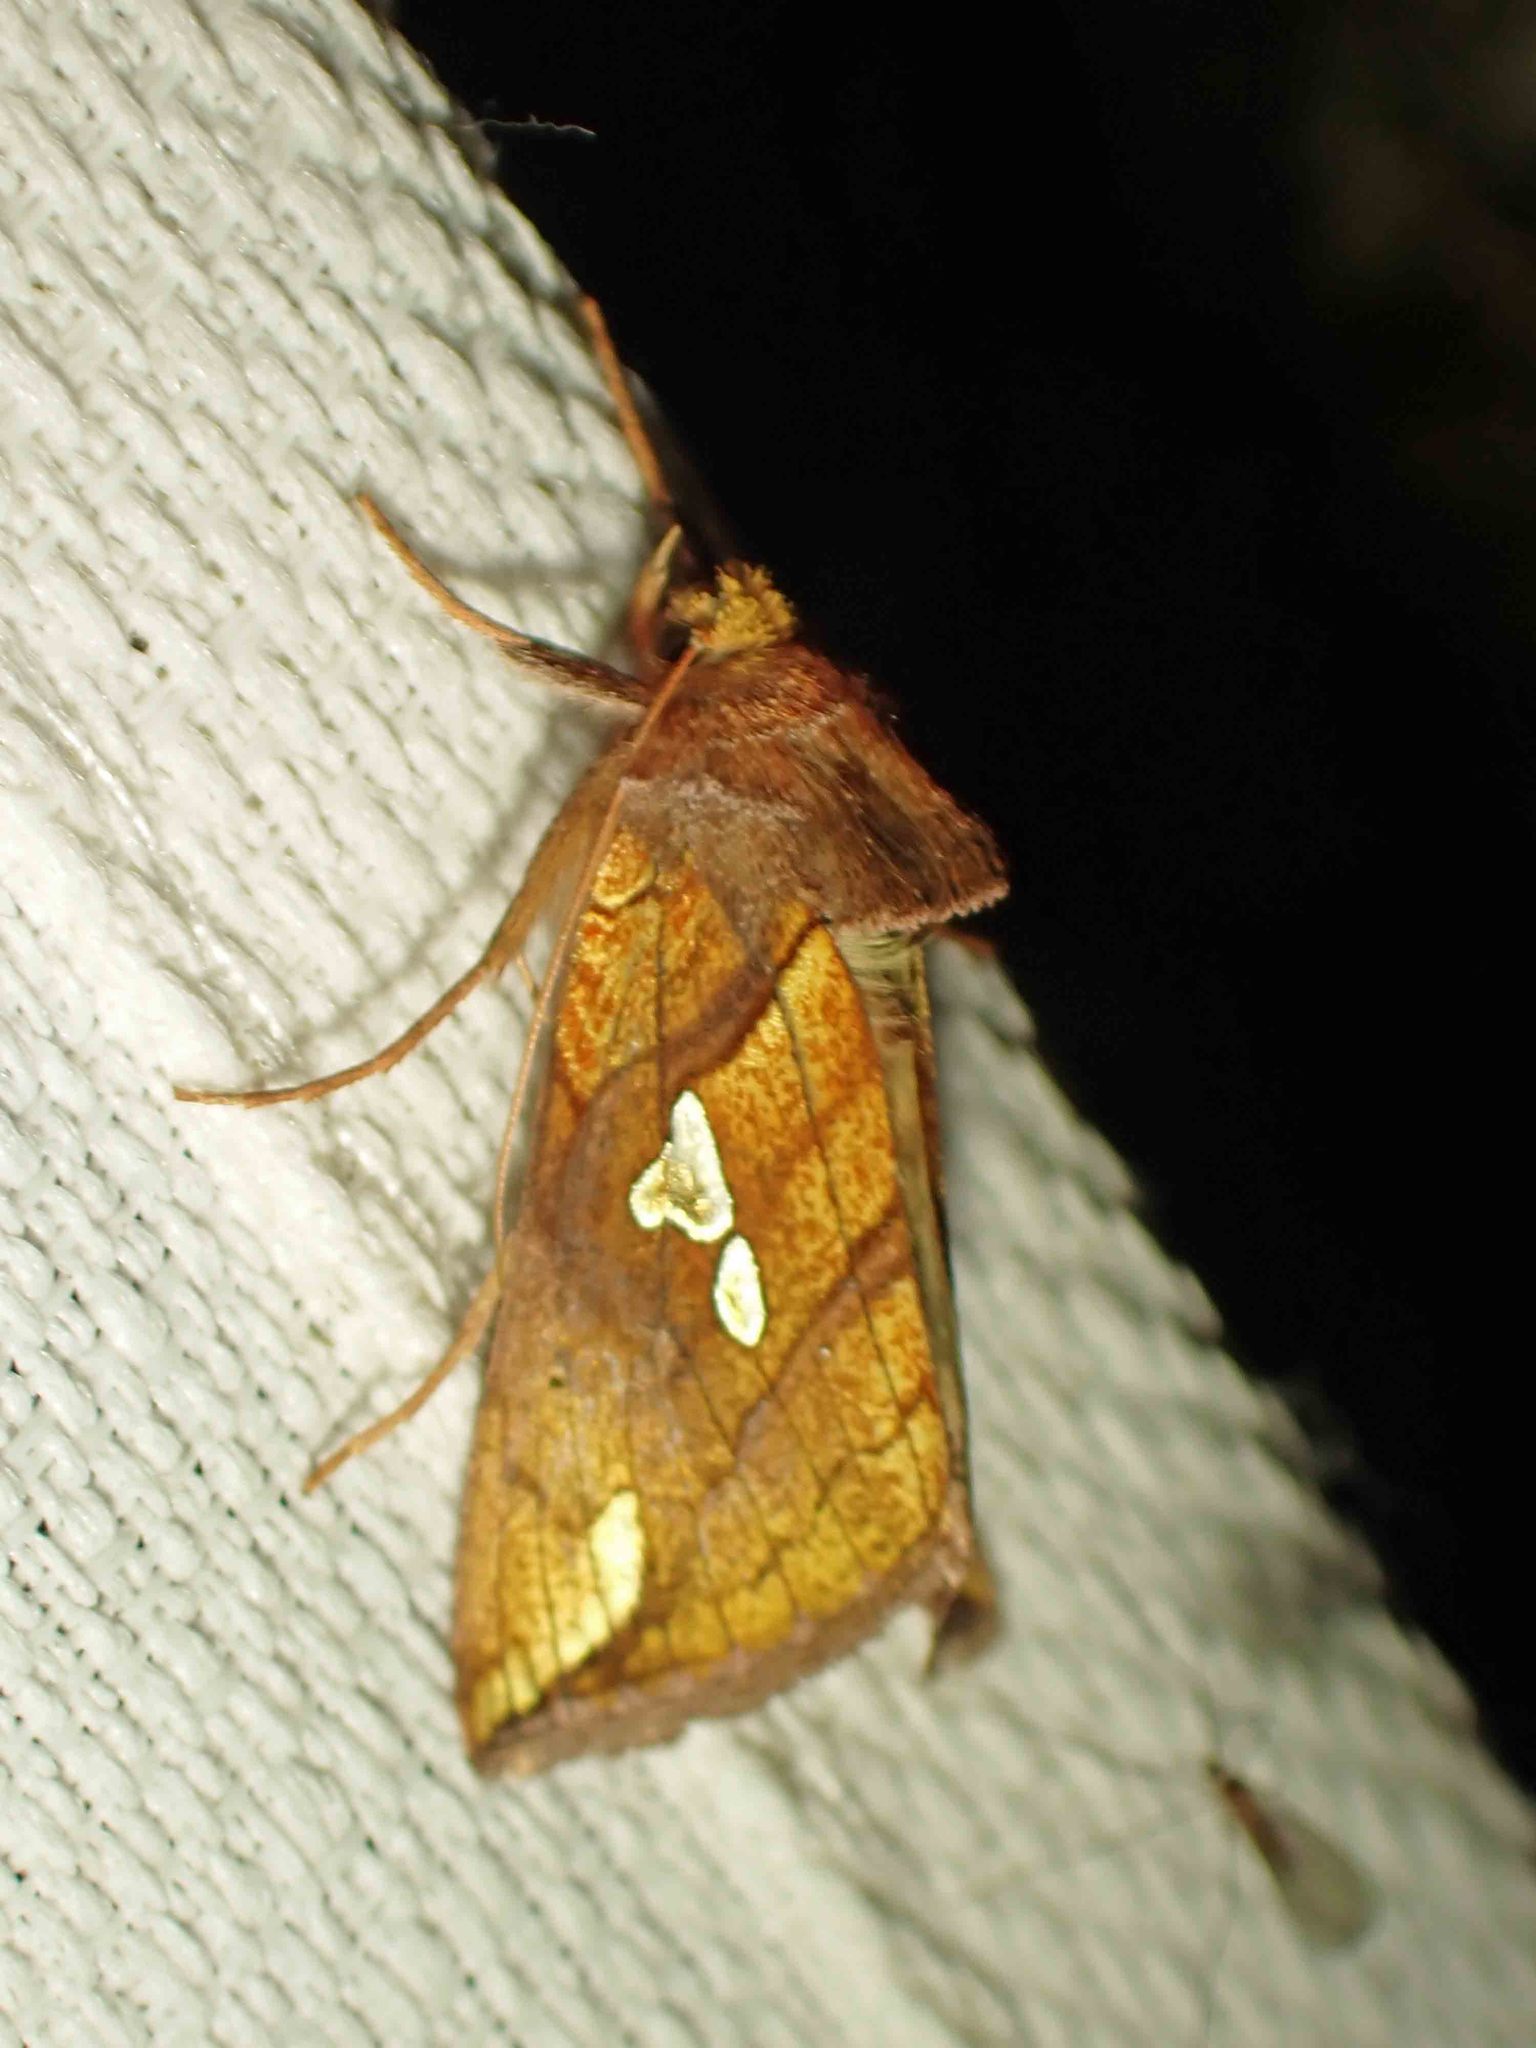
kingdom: Animalia
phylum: Arthropoda
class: Insecta
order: Lepidoptera
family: Noctuidae
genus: Plusia
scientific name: Plusia putnami
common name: Lempke's gold spot
